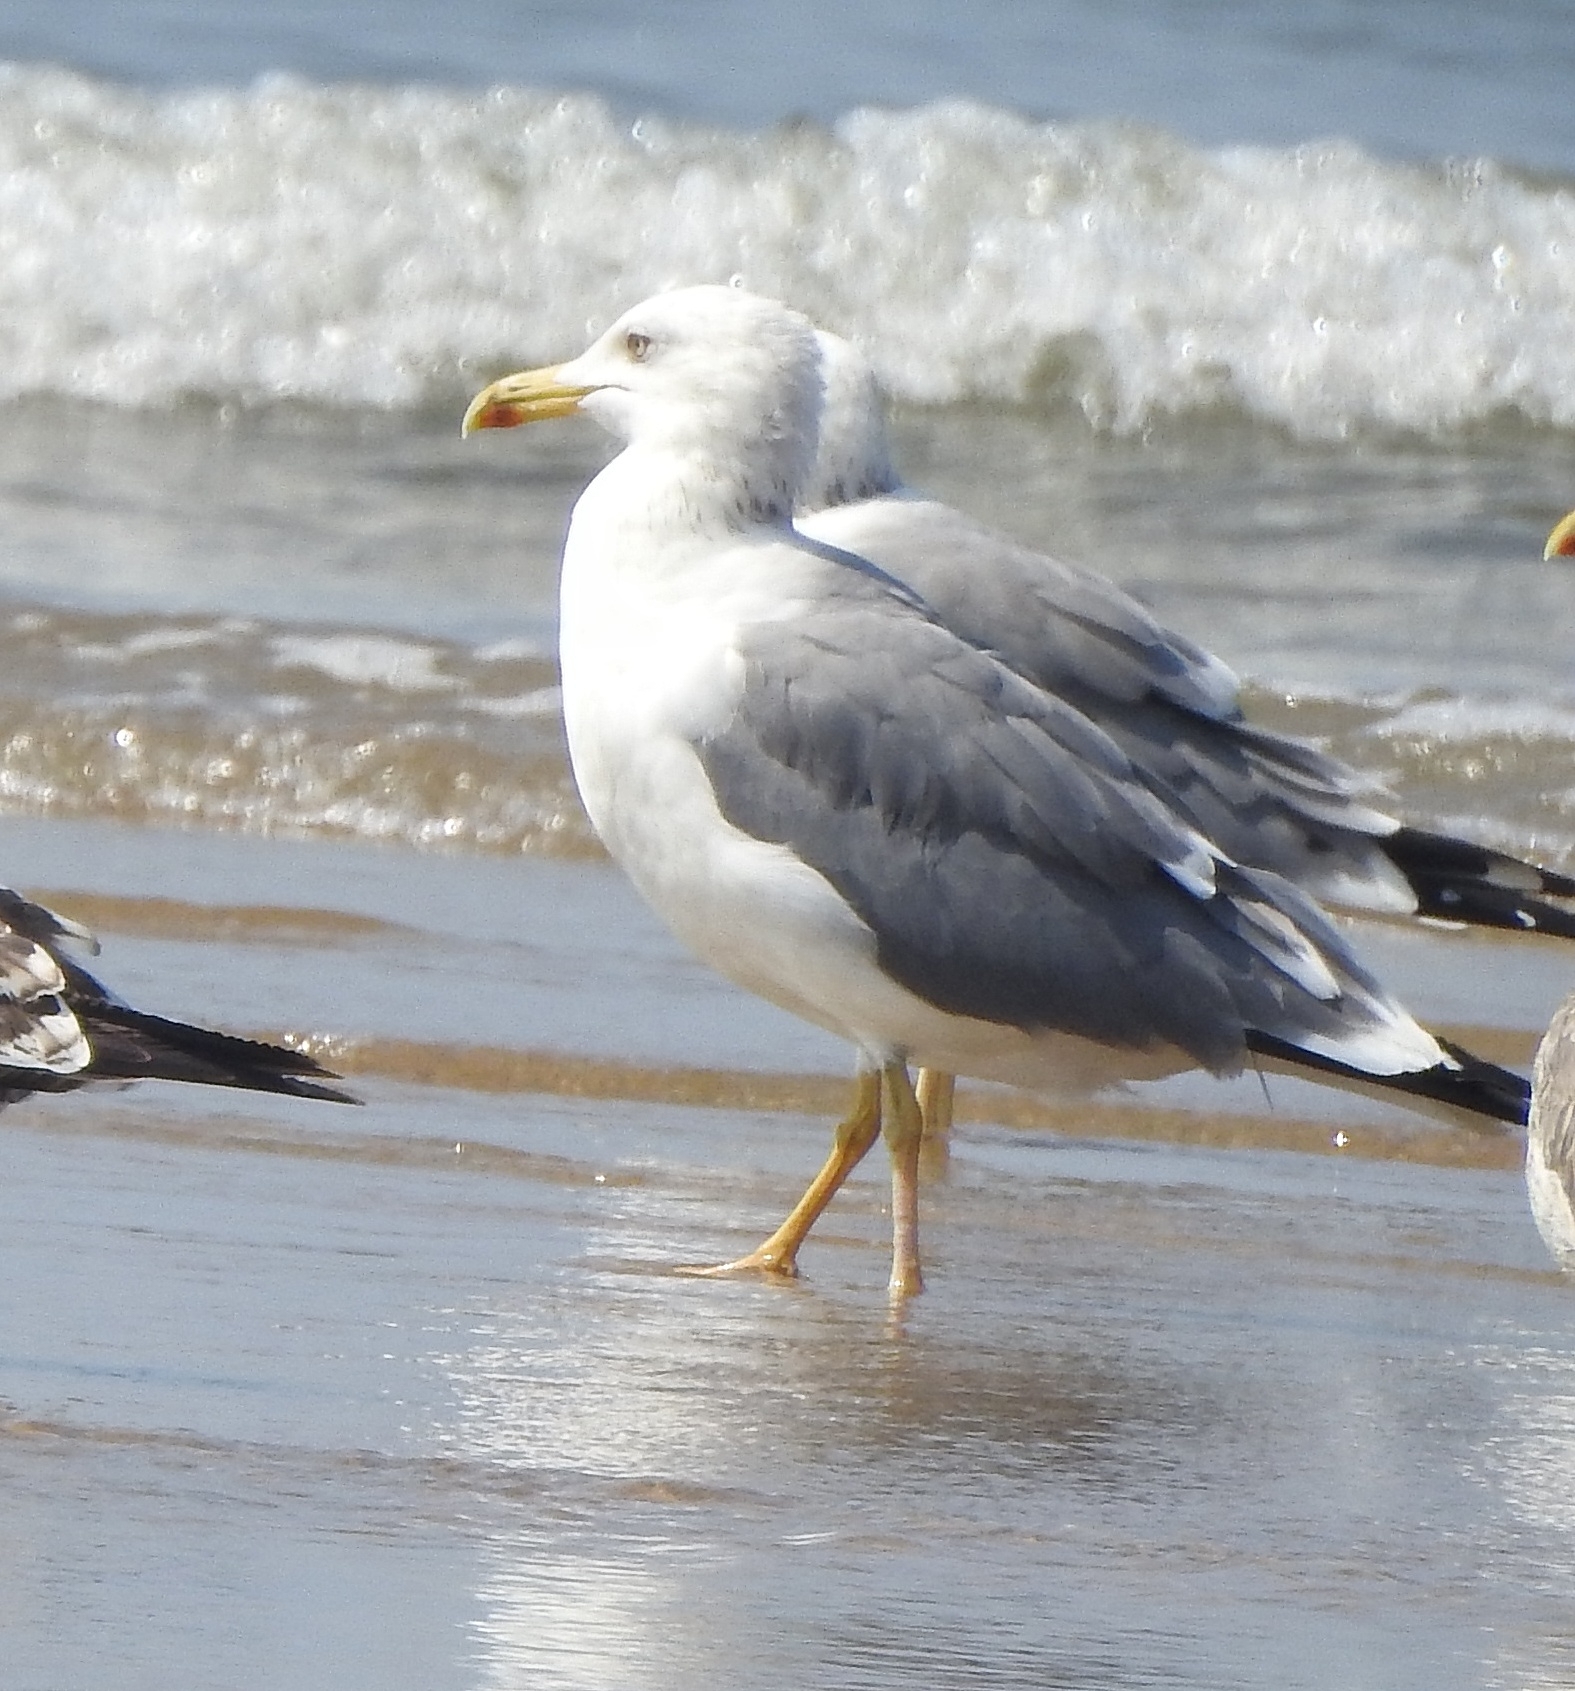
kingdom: Animalia
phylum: Chordata
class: Aves
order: Charadriiformes
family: Laridae
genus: Larus
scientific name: Larus fuscus
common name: Lesser black-backed gull
